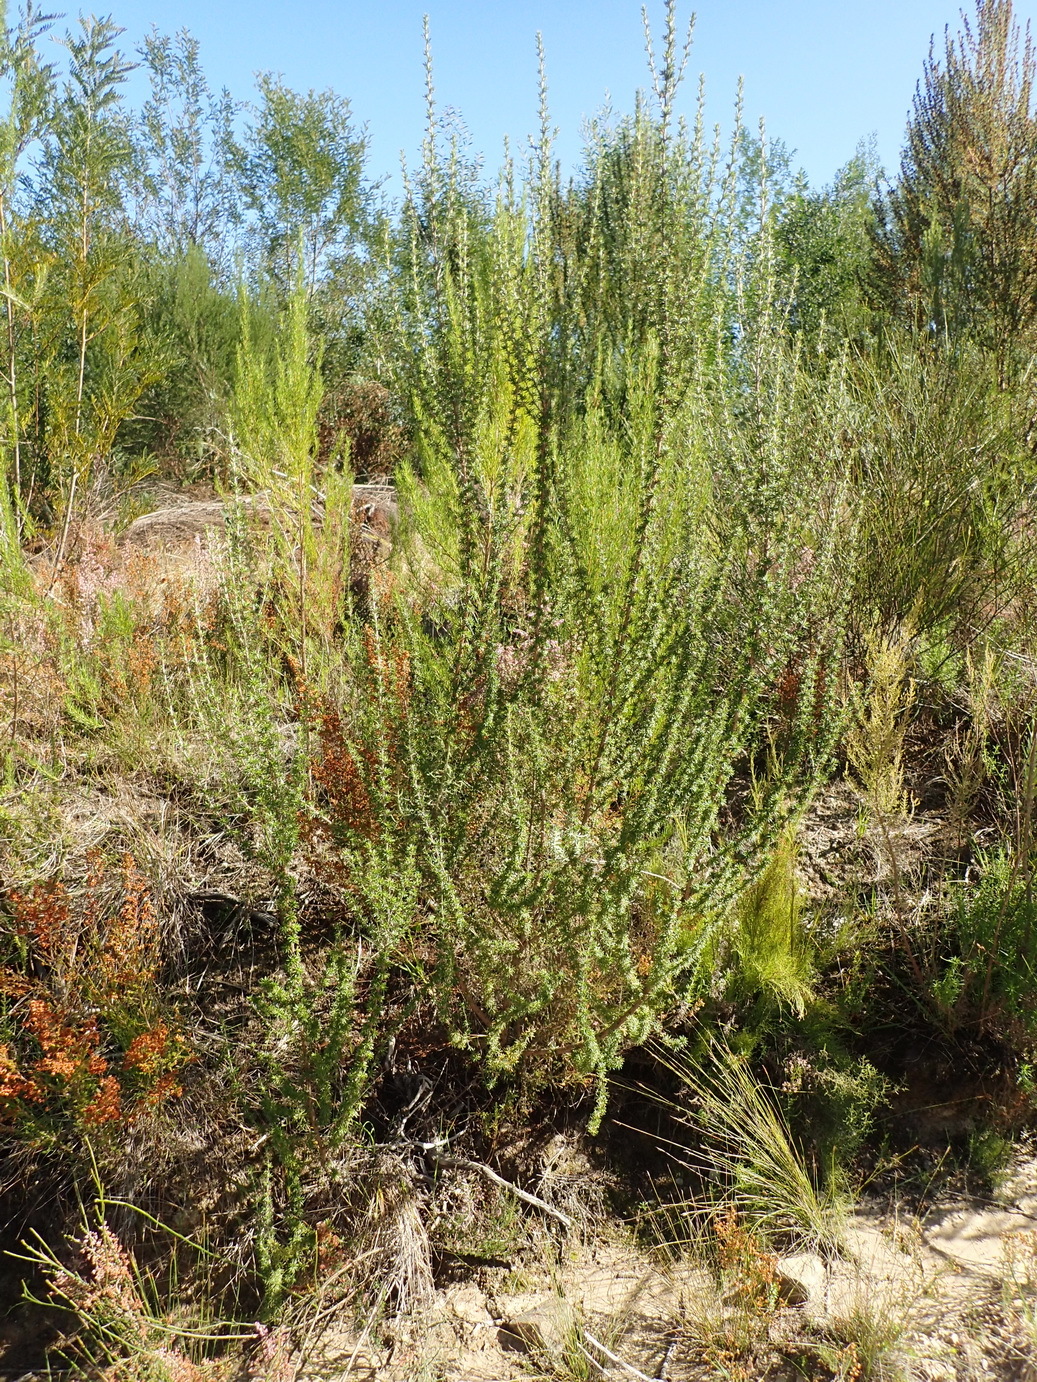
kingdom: Plantae
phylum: Tracheophyta
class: Magnoliopsida
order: Rosales
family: Rosaceae
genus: Cliffortia
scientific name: Cliffortia stricta
